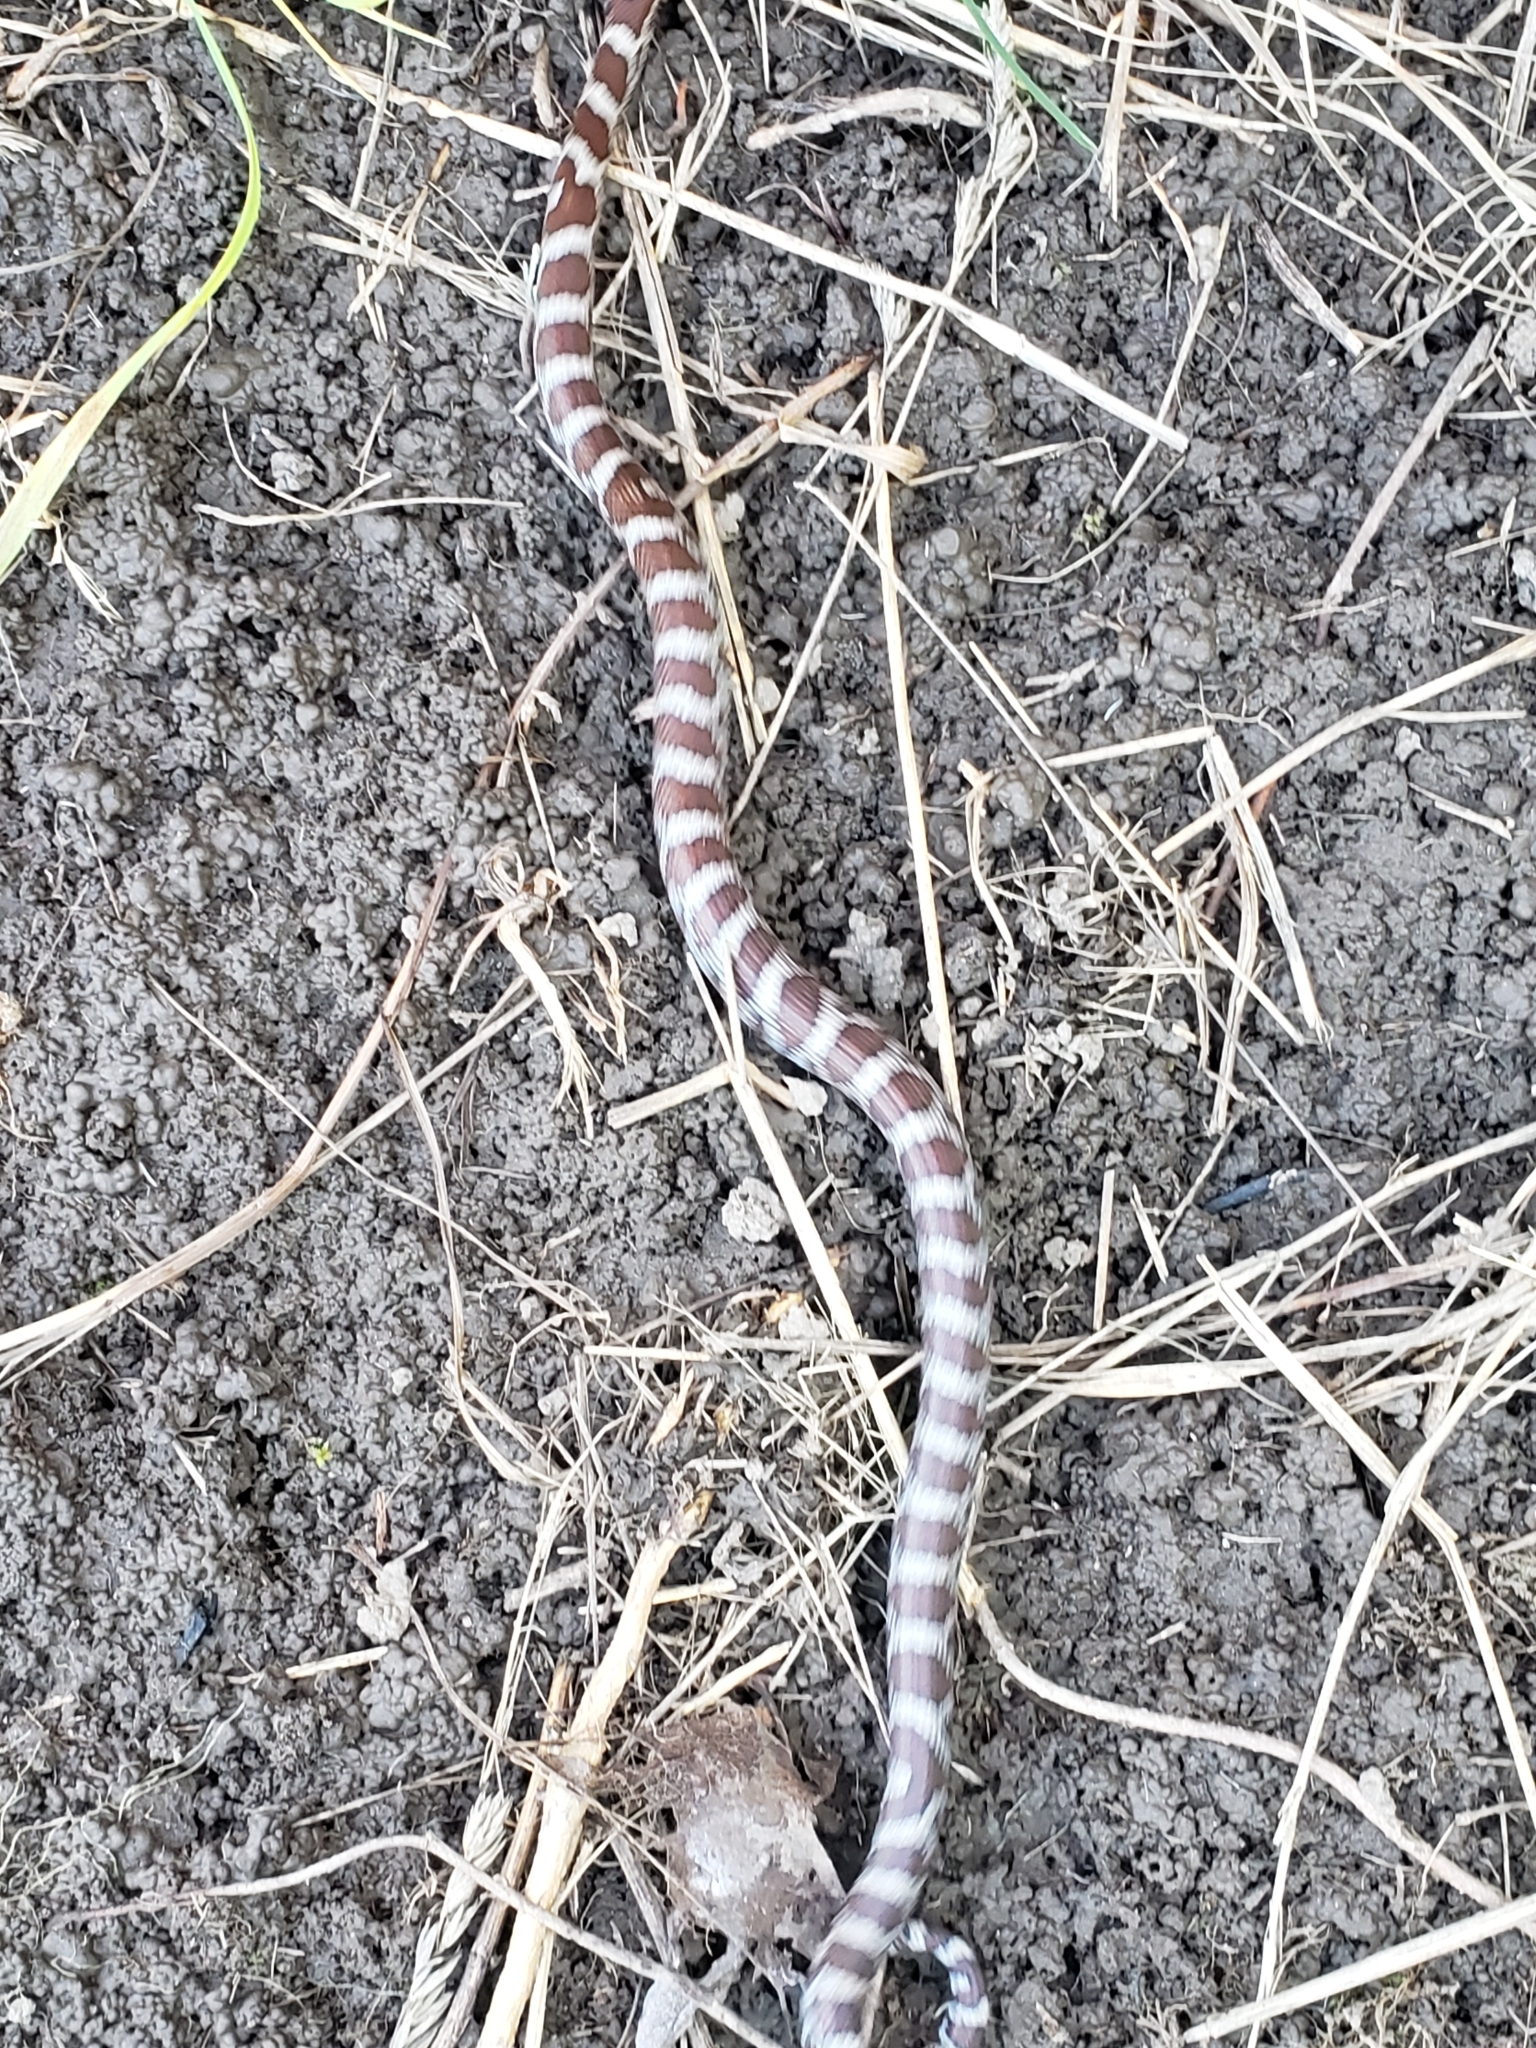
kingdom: Animalia
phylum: Chordata
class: Squamata
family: Colubridae
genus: Lampropeltis
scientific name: Lampropeltis triangulum
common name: Eastern milksnake
